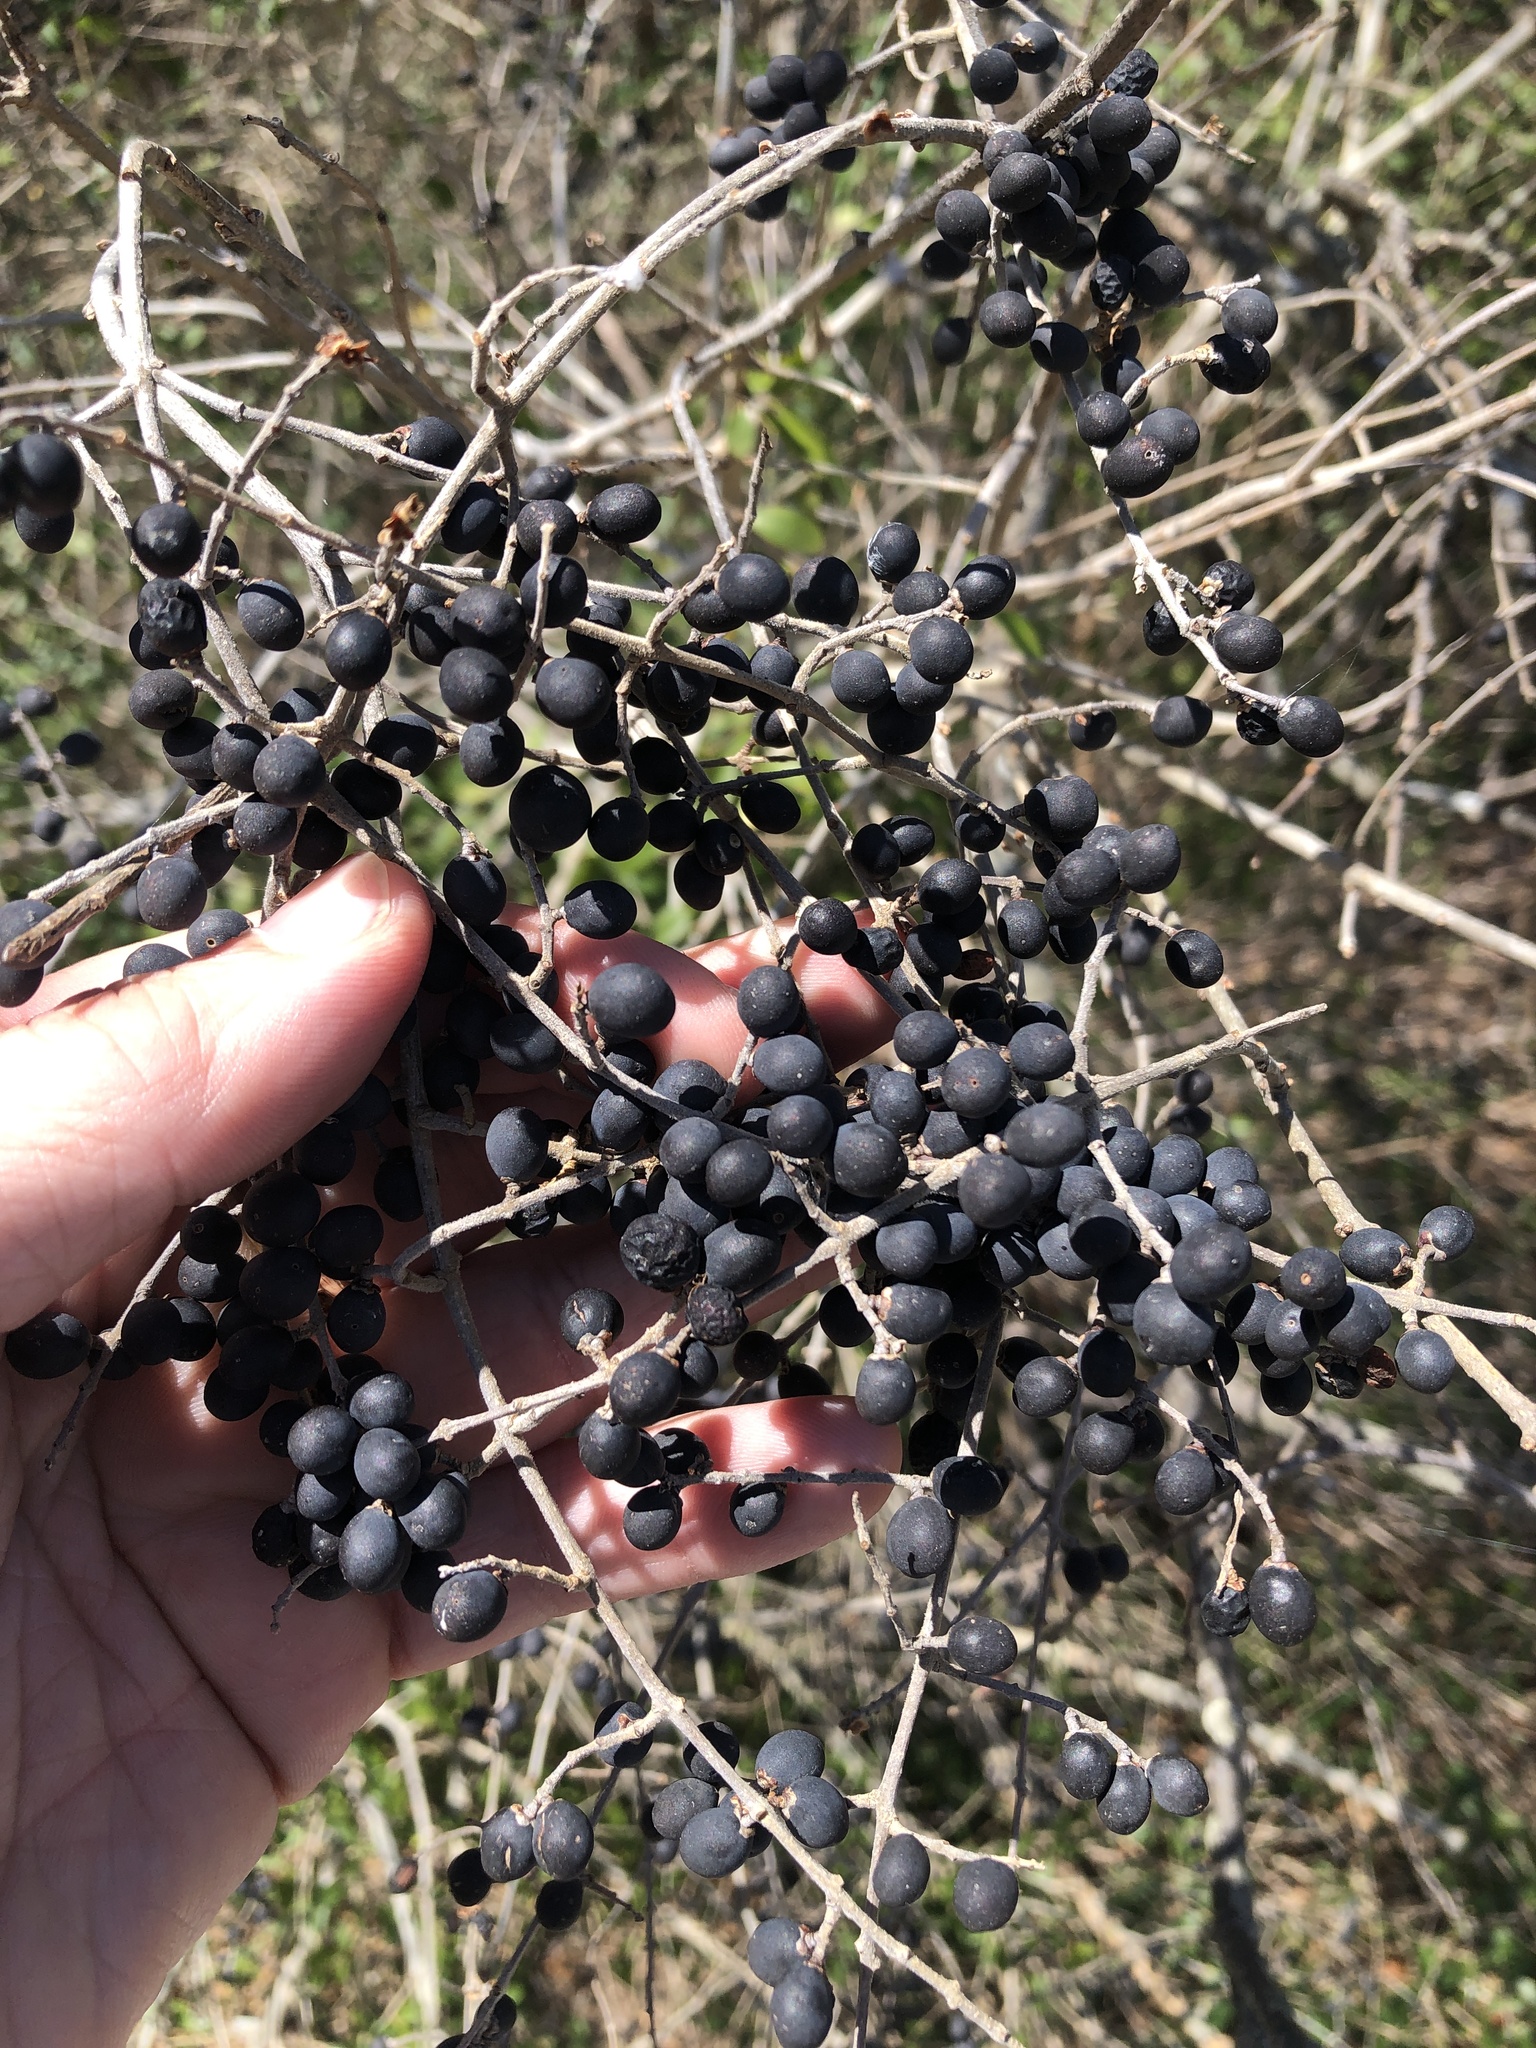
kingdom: Plantae
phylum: Tracheophyta
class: Magnoliopsida
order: Lamiales
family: Oleaceae
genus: Ligustrum
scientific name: Ligustrum quihoui
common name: Waxyleaf privet
